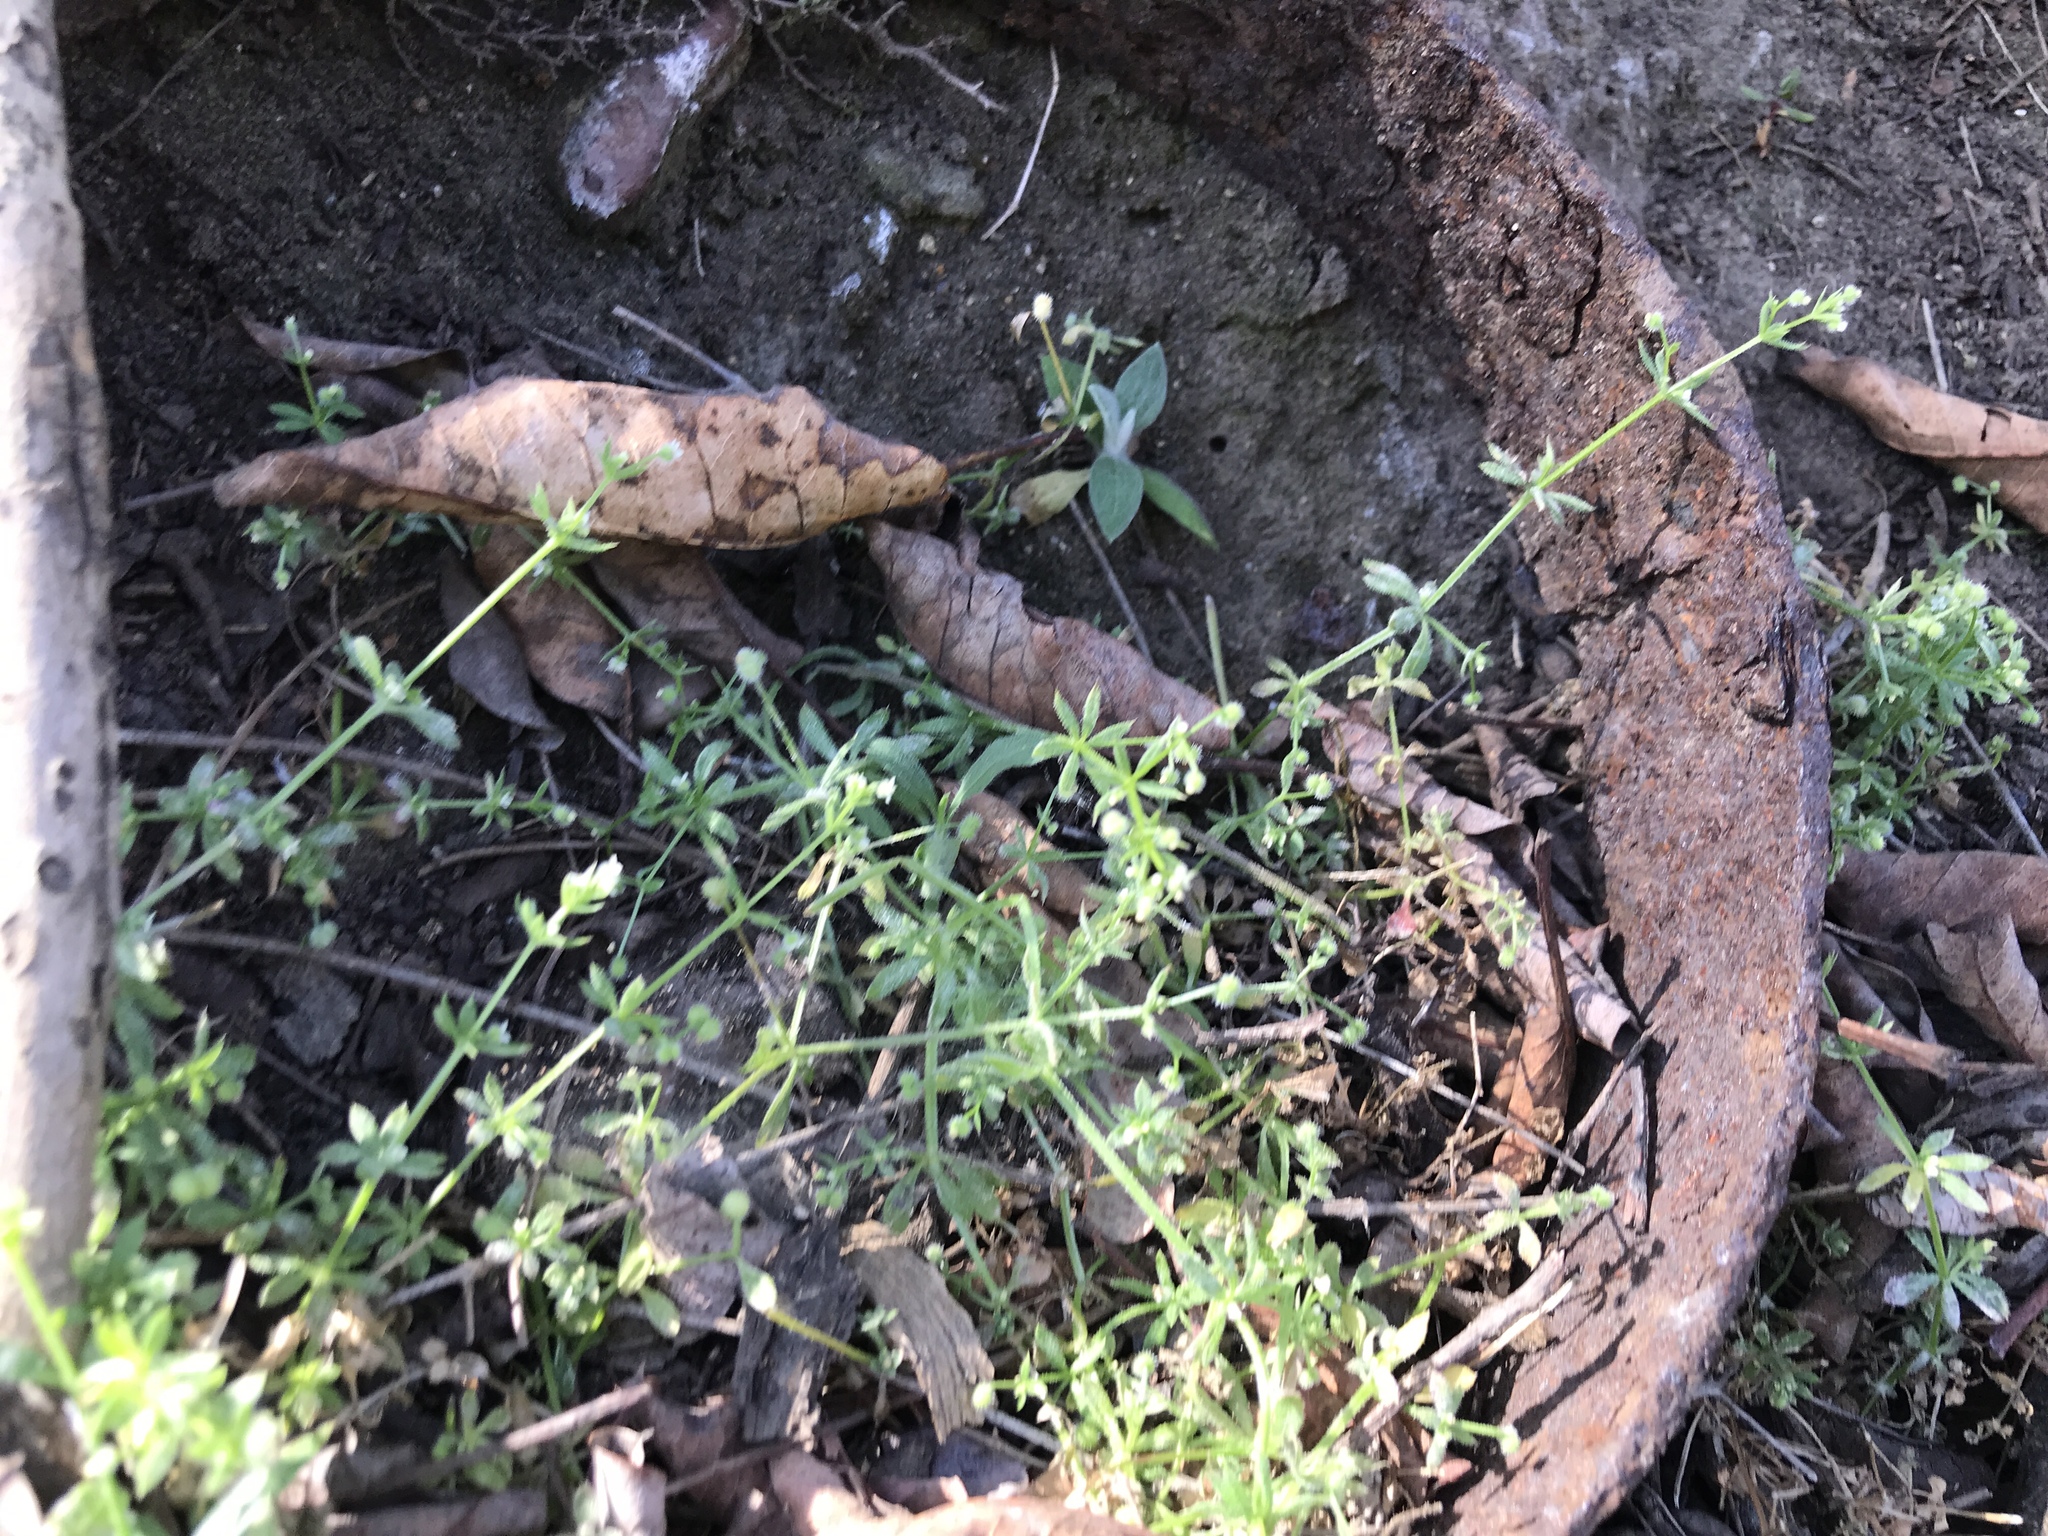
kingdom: Plantae
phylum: Tracheophyta
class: Magnoliopsida
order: Gentianales
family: Rubiaceae
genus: Galium
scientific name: Galium aparine
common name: Cleavers
